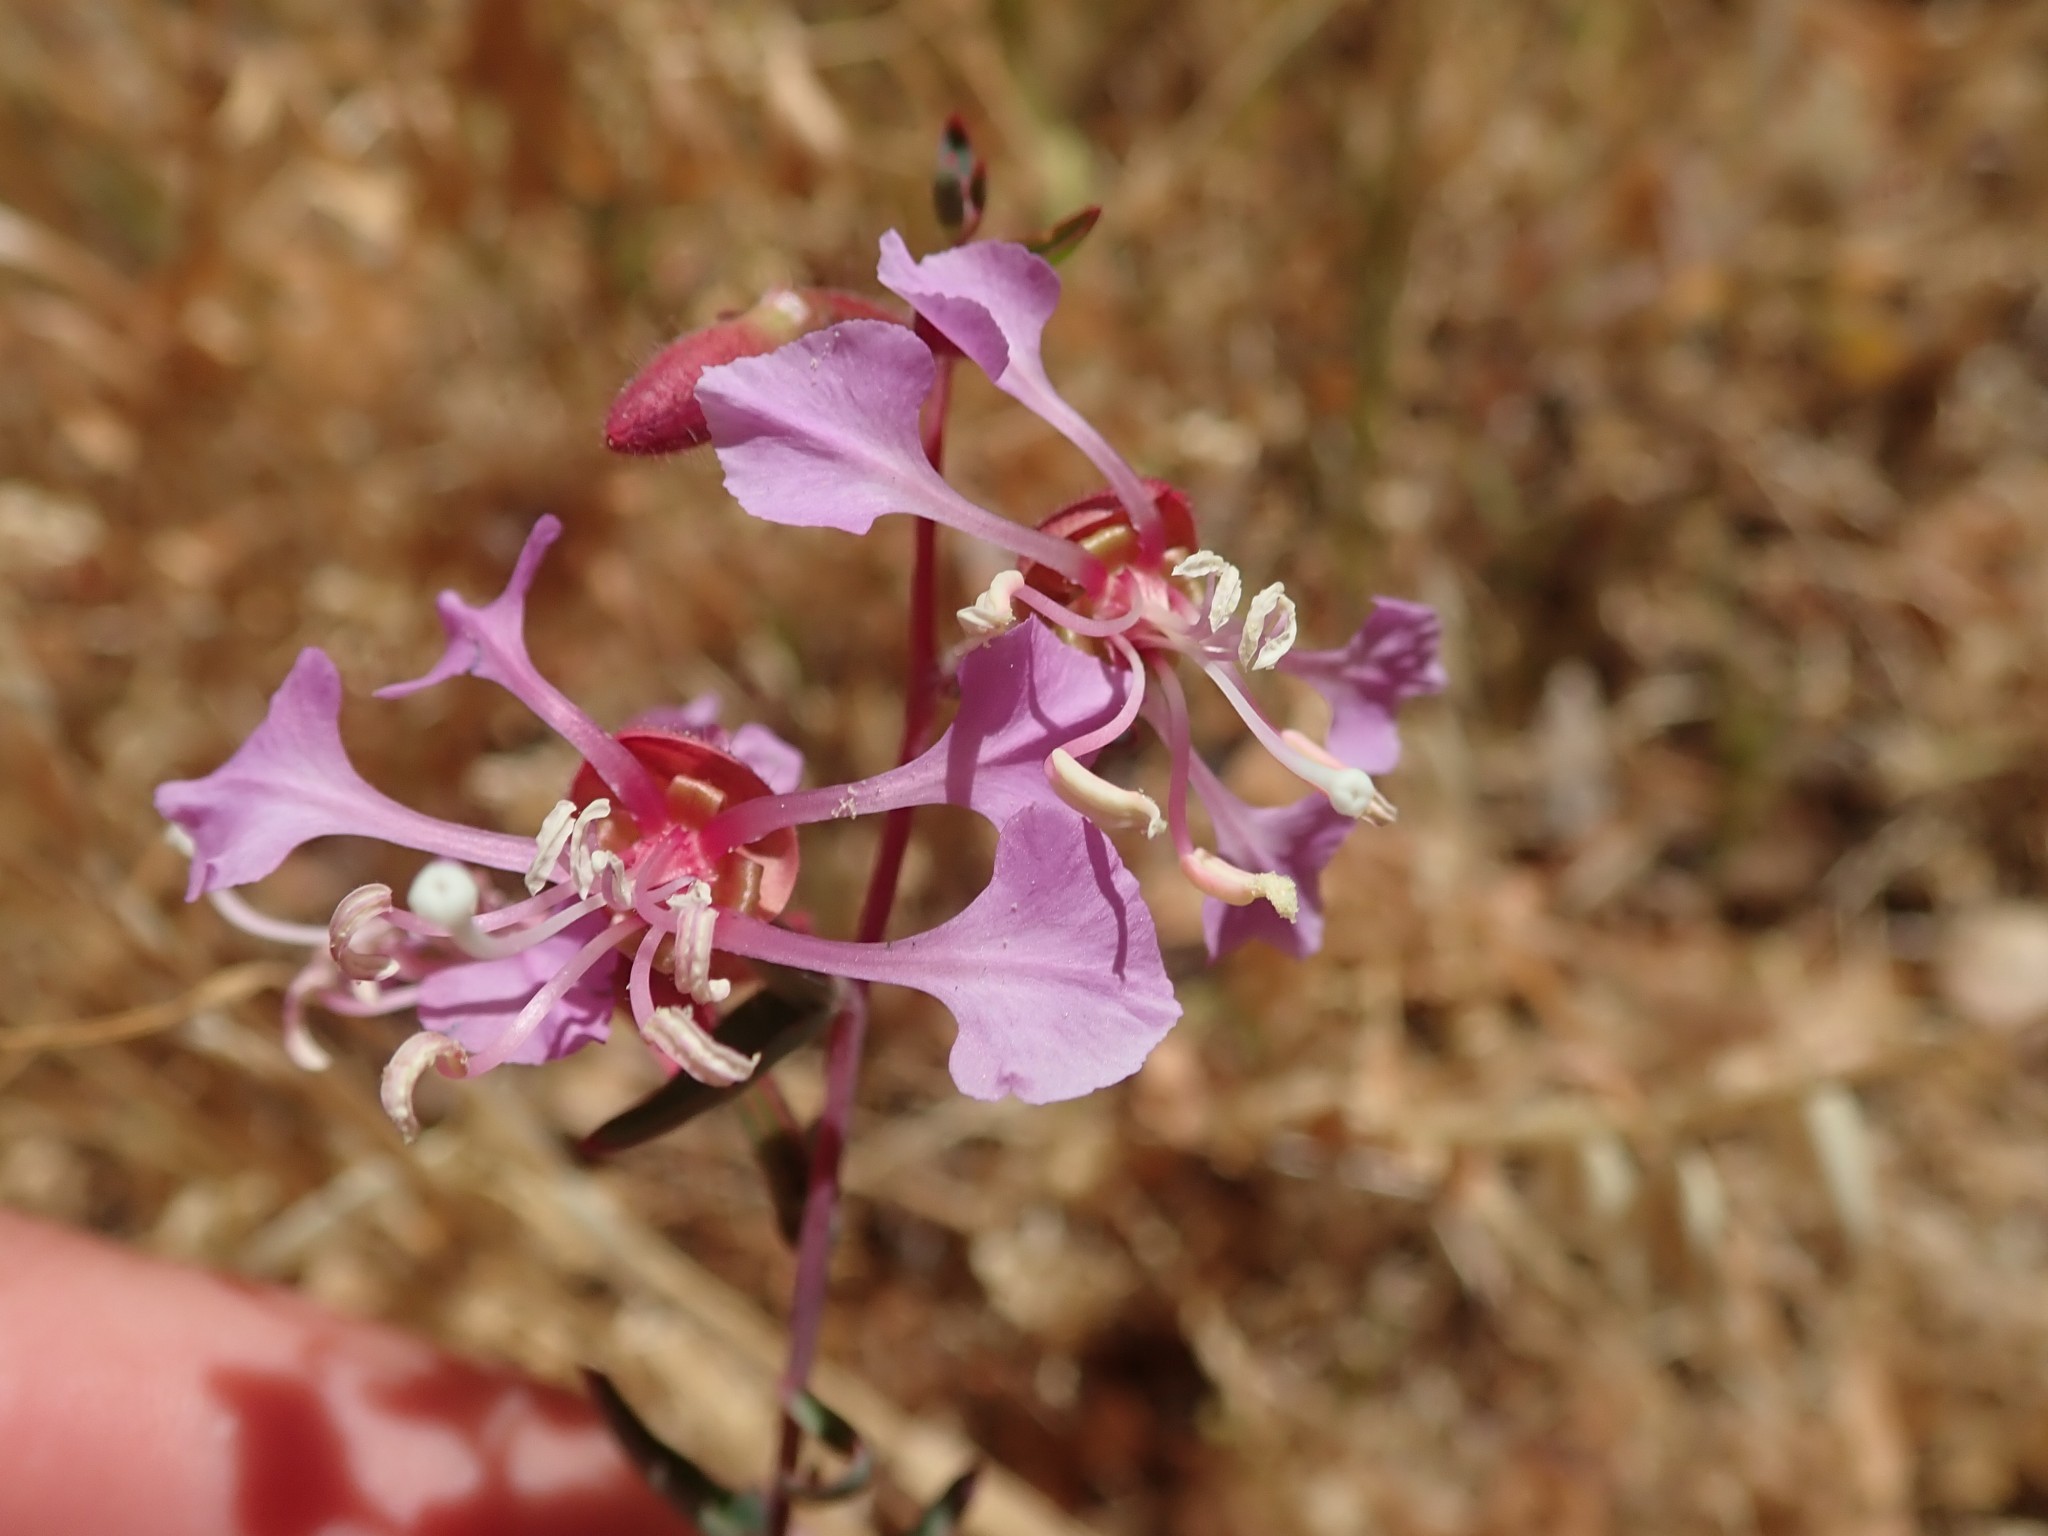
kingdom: Plantae
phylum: Tracheophyta
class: Magnoliopsida
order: Myrtales
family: Onagraceae
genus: Clarkia
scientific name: Clarkia unguiculata
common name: Clarkia
